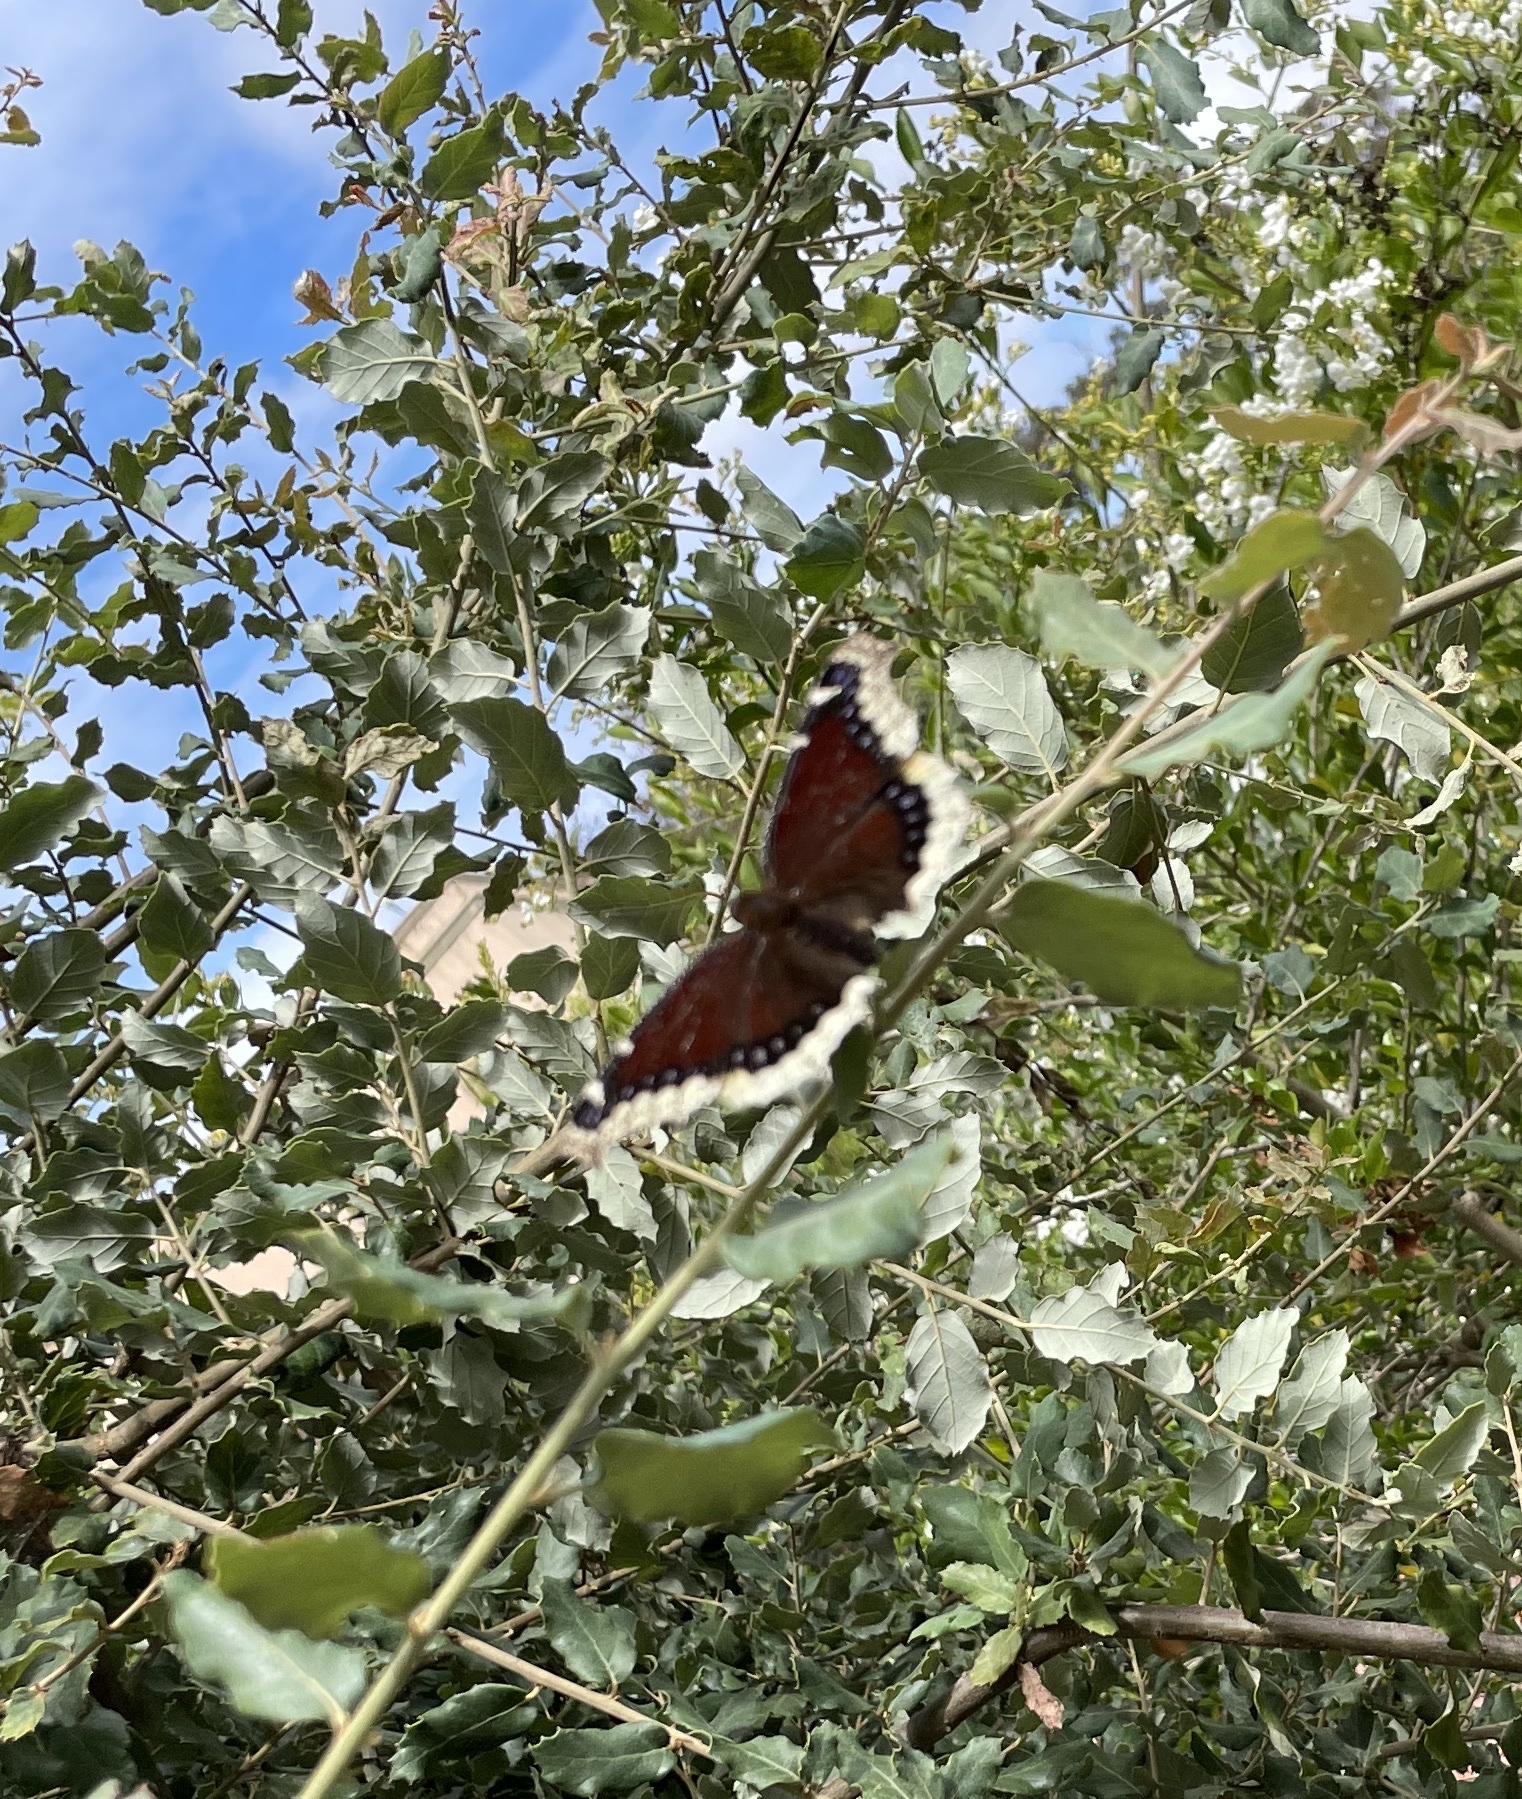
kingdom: Animalia
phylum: Arthropoda
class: Insecta
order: Lepidoptera
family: Nymphalidae
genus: Nymphalis
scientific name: Nymphalis antiopa
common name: Camberwell beauty
